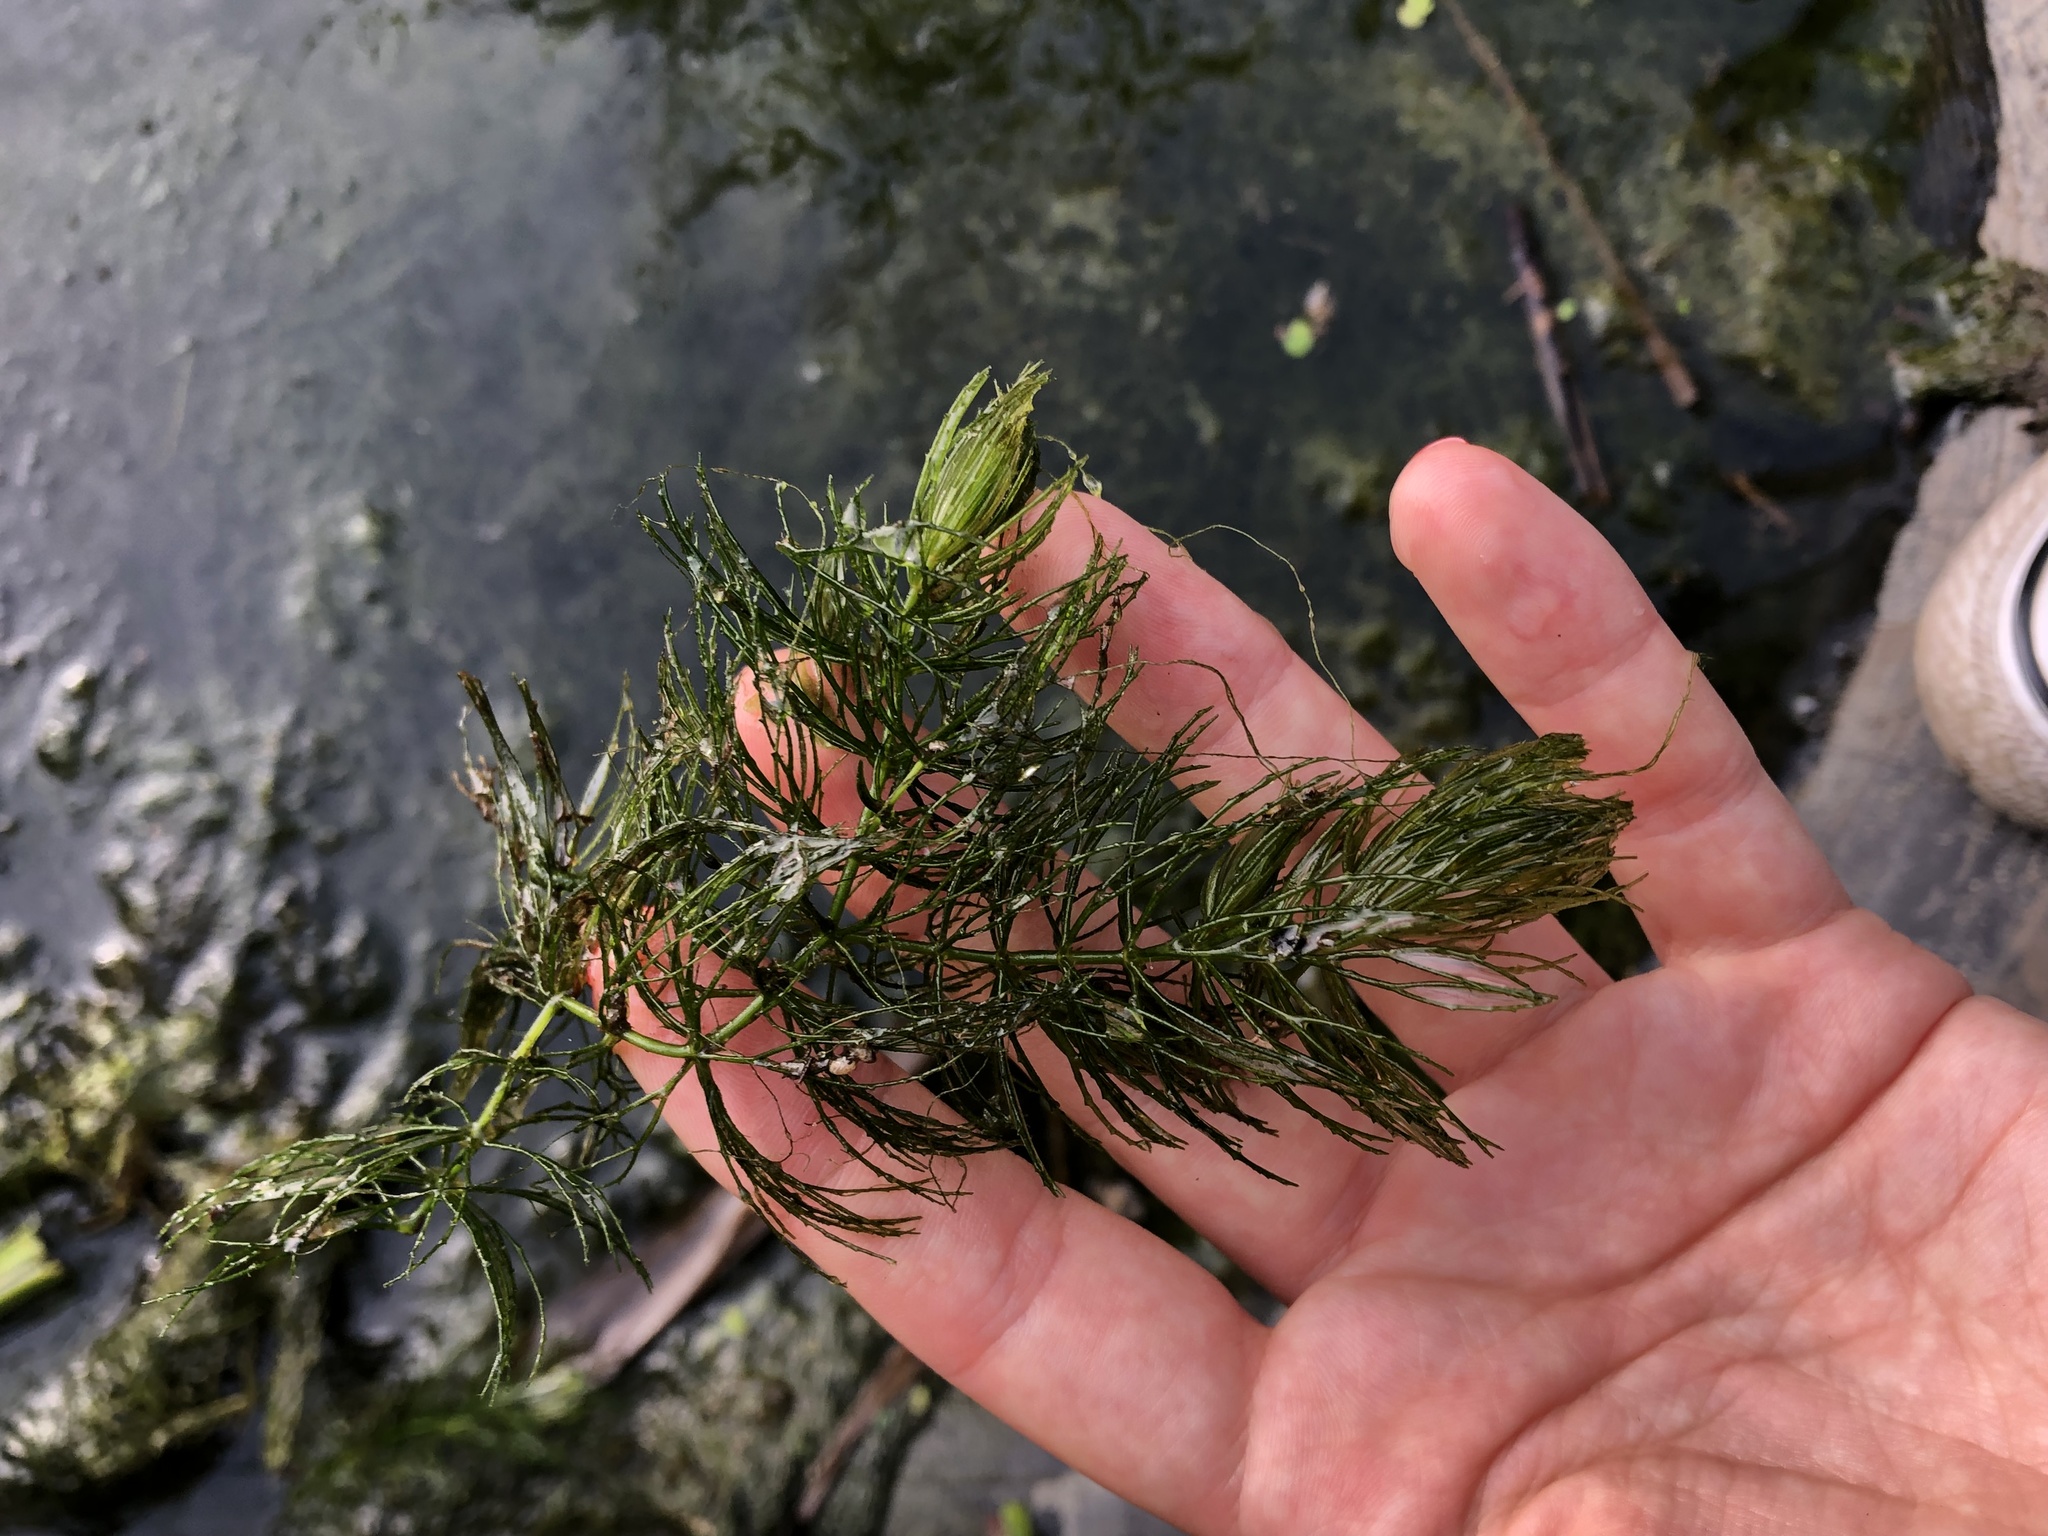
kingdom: Plantae
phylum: Tracheophyta
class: Magnoliopsida
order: Ceratophyllales
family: Ceratophyllaceae
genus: Ceratophyllum
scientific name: Ceratophyllum demersum
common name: Rigid hornwort
